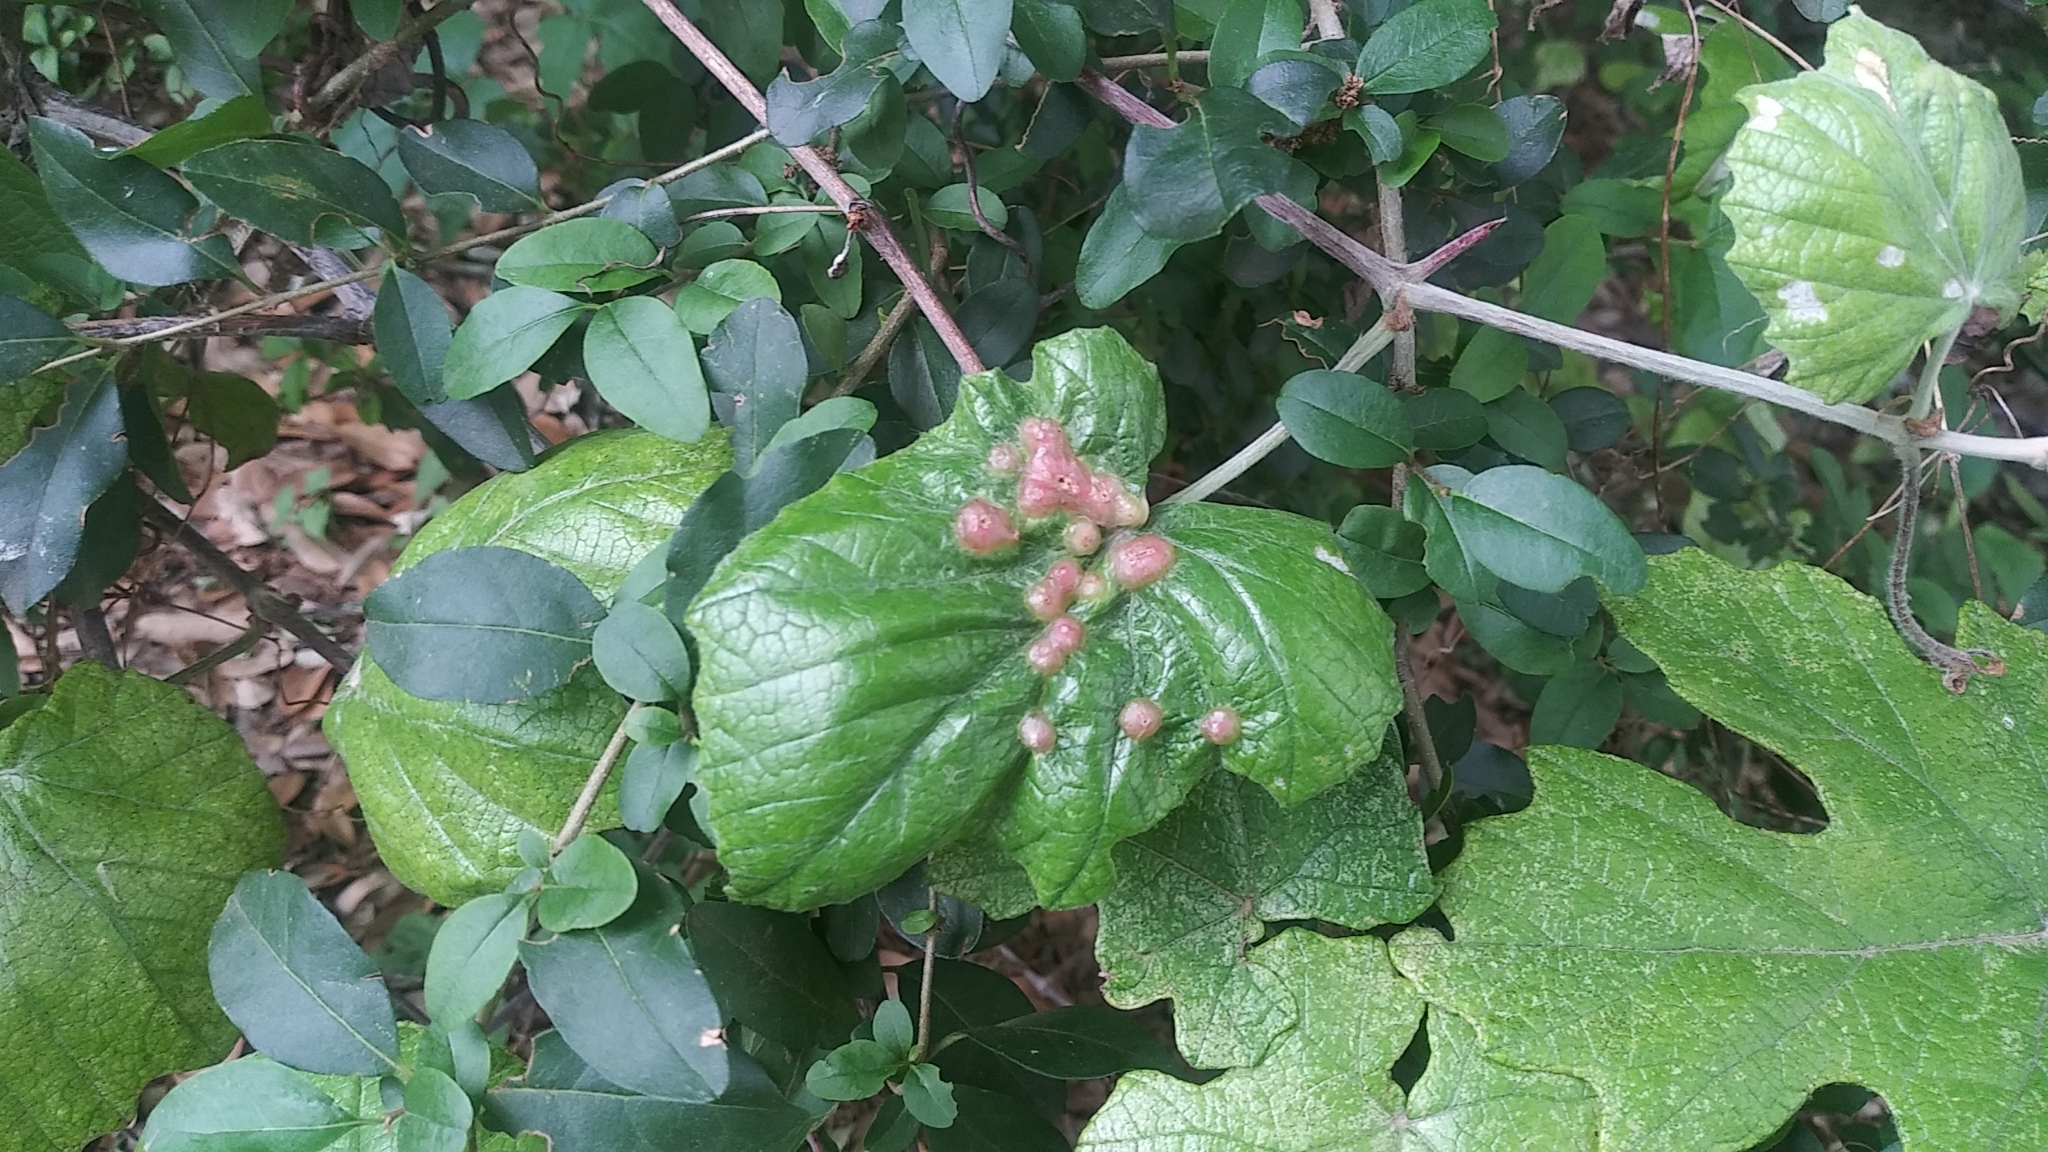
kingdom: Animalia
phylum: Arthropoda
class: Insecta
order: Diptera
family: Cecidomyiidae
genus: Vitisiella
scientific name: Vitisiella brevicauda
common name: Grape tumid gallmaker midge
